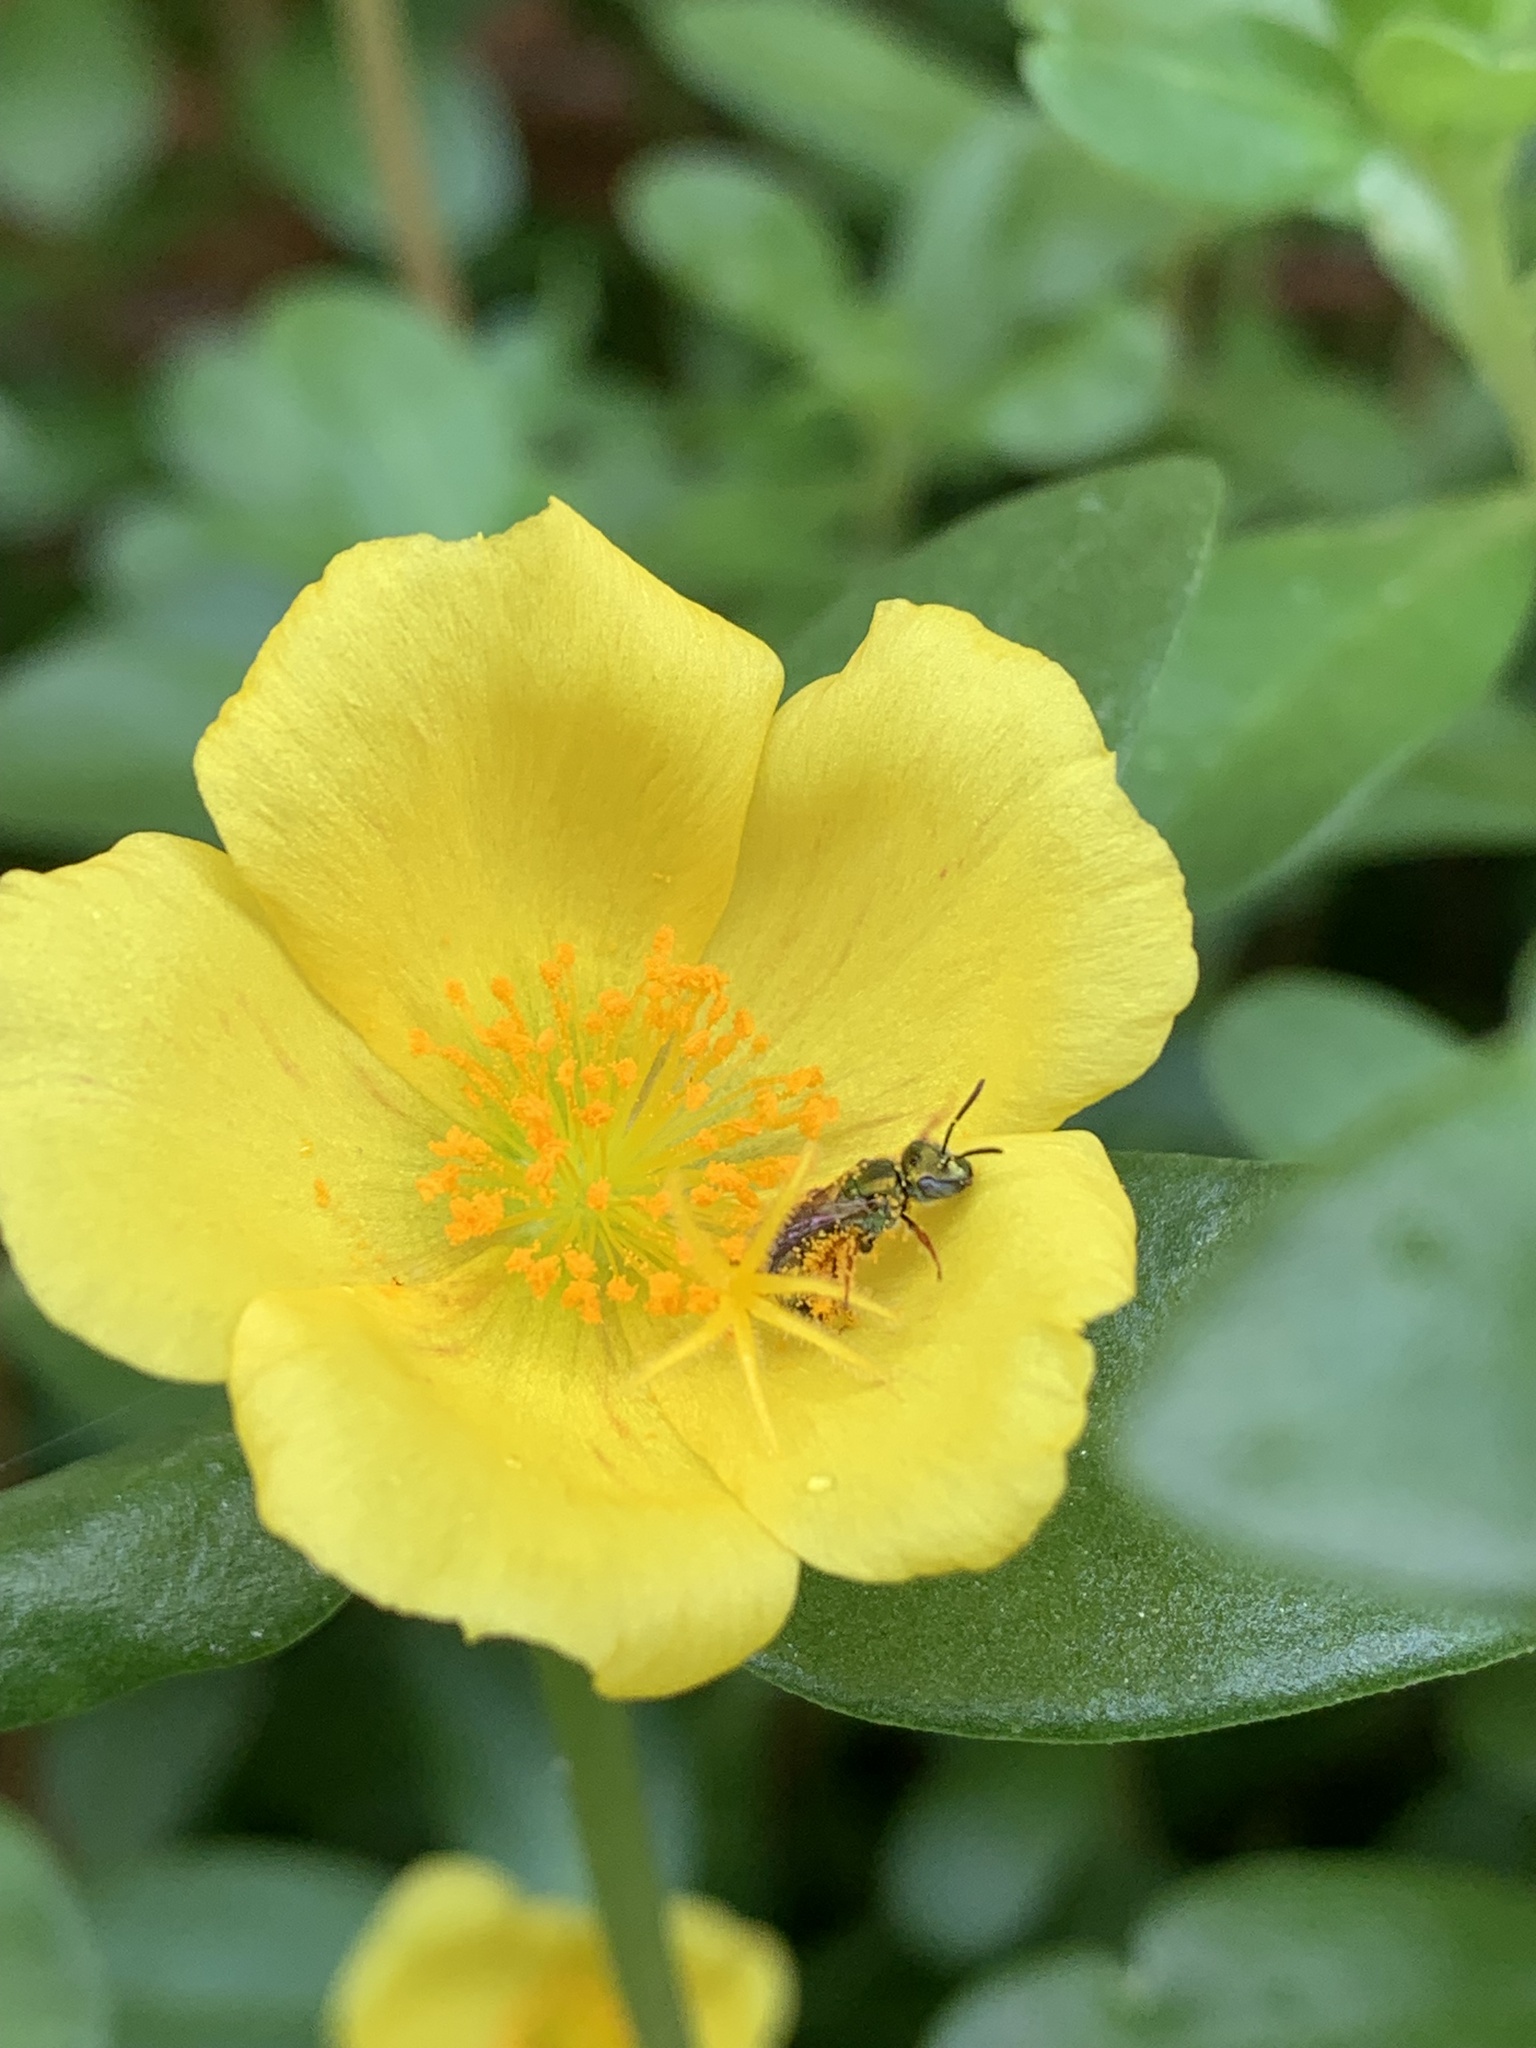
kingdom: Animalia
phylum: Arthropoda
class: Insecta
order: Hymenoptera
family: Halictidae
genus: Augochlora
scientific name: Augochlora aurifera
